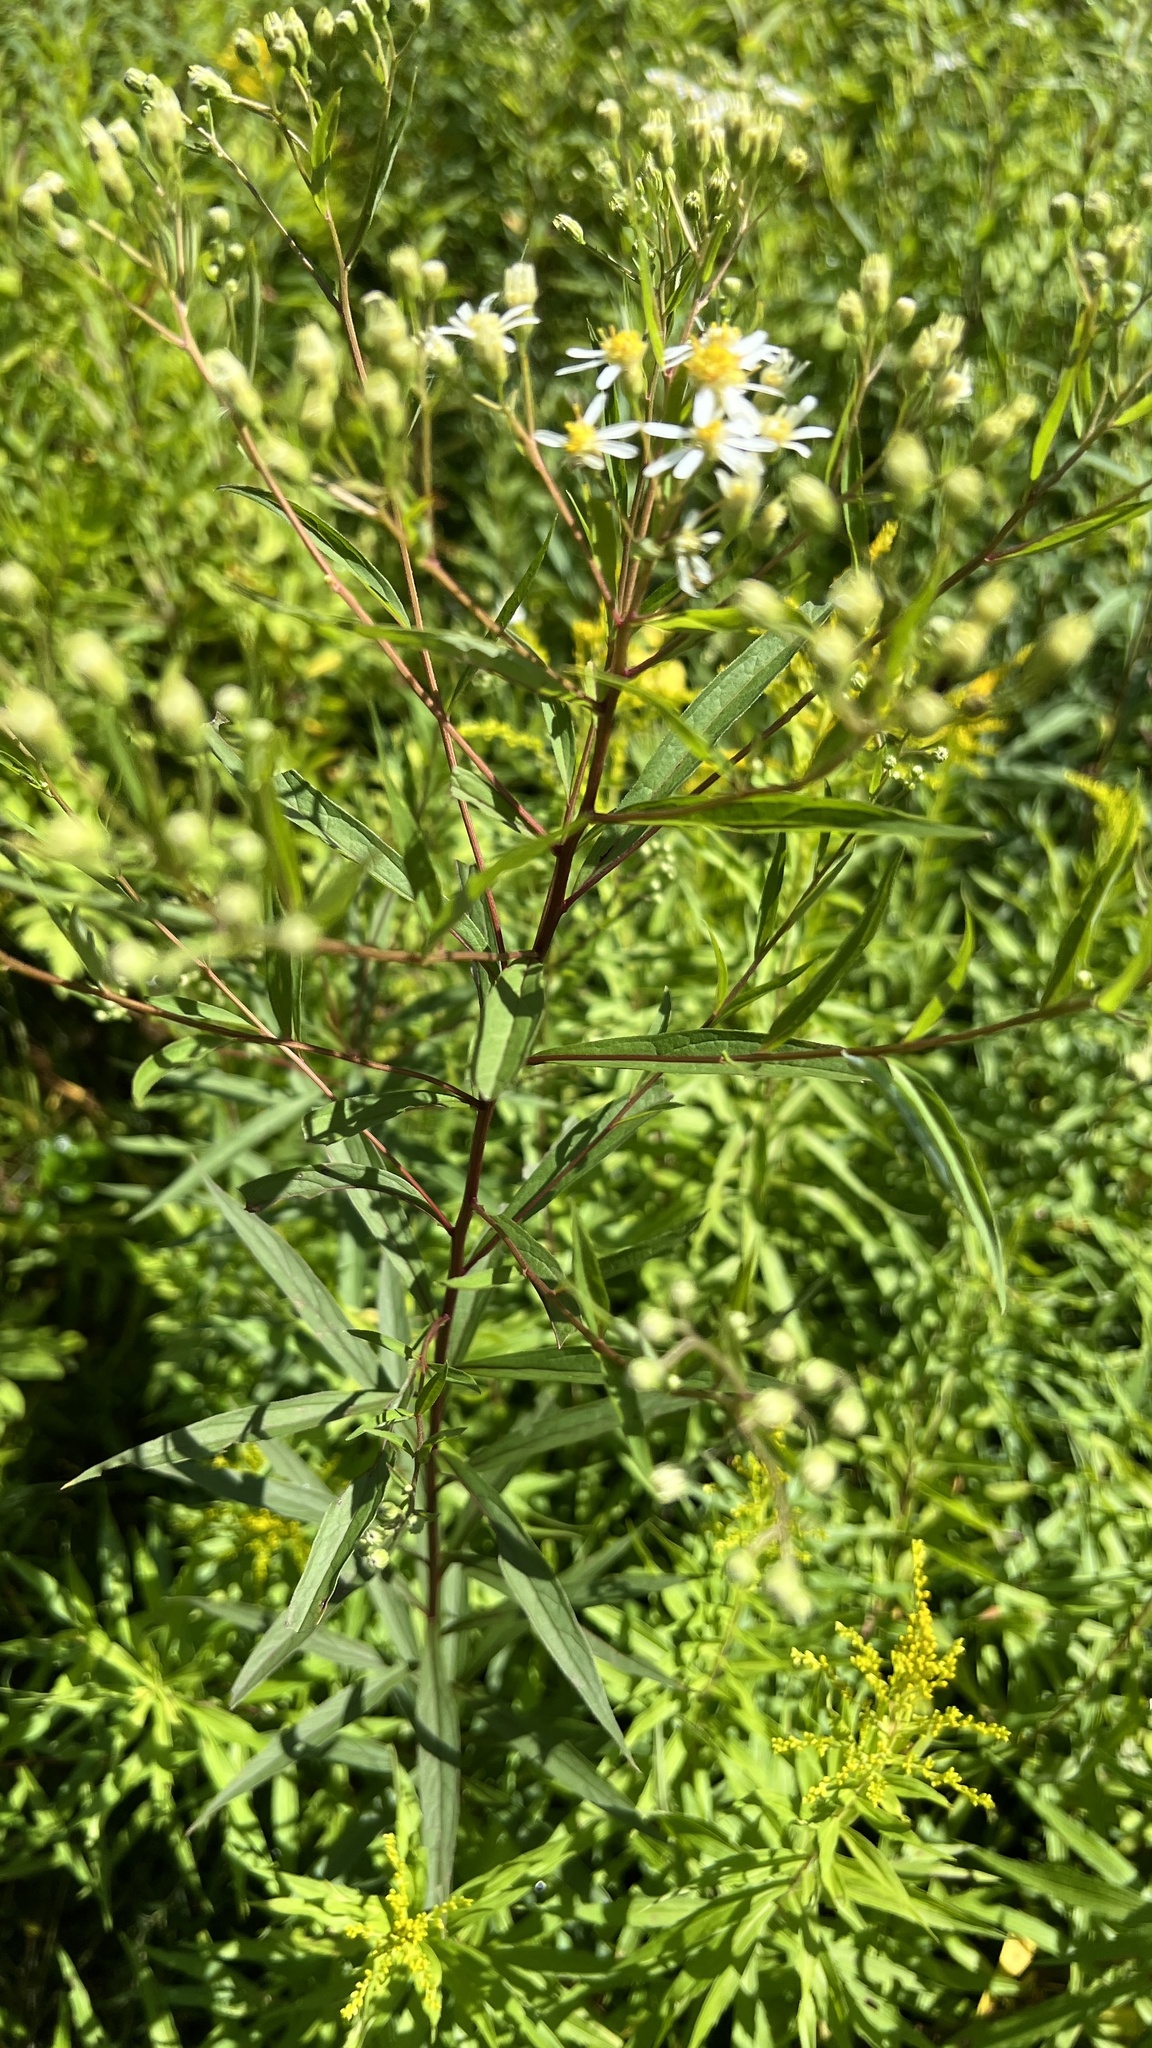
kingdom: Plantae
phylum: Tracheophyta
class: Magnoliopsida
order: Asterales
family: Asteraceae
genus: Doellingeria
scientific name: Doellingeria umbellata
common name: Flat-top white aster
